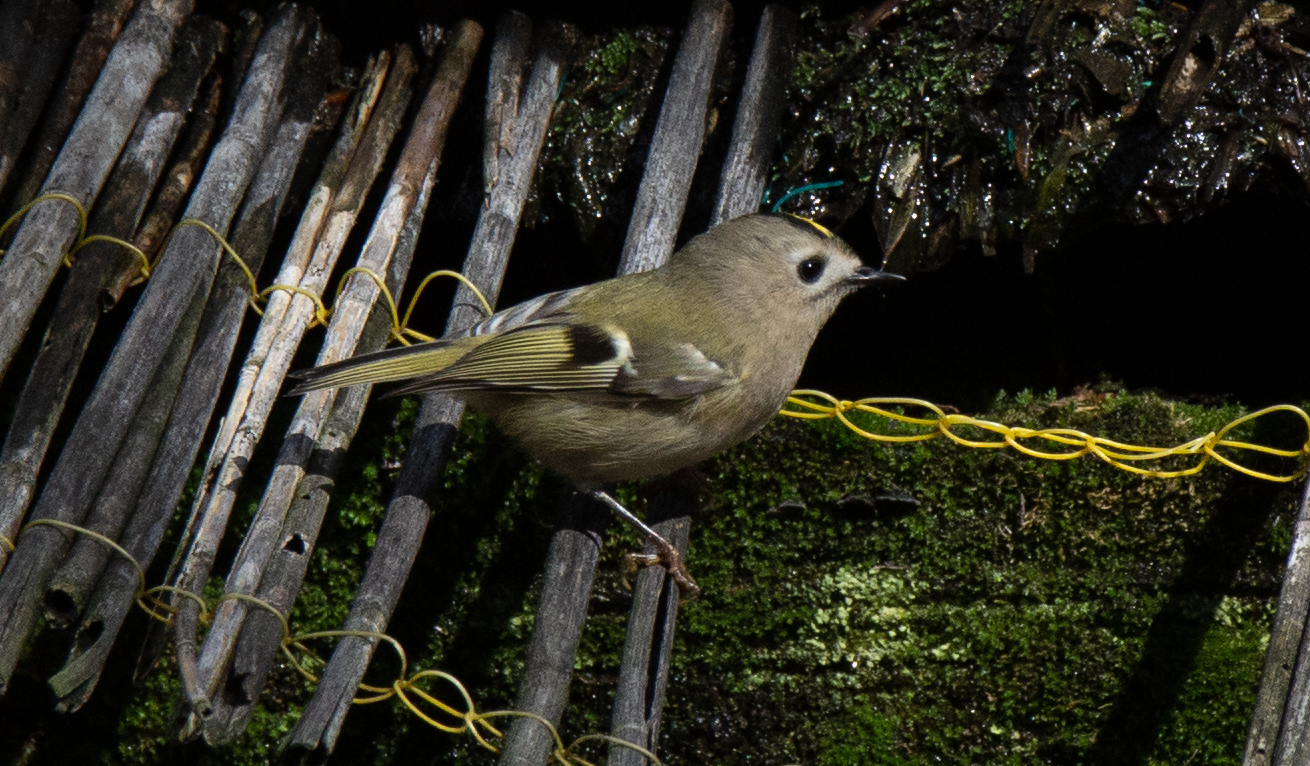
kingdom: Animalia
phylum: Chordata
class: Aves
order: Passeriformes
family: Regulidae
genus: Regulus
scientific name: Regulus regulus
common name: Goldcrest
